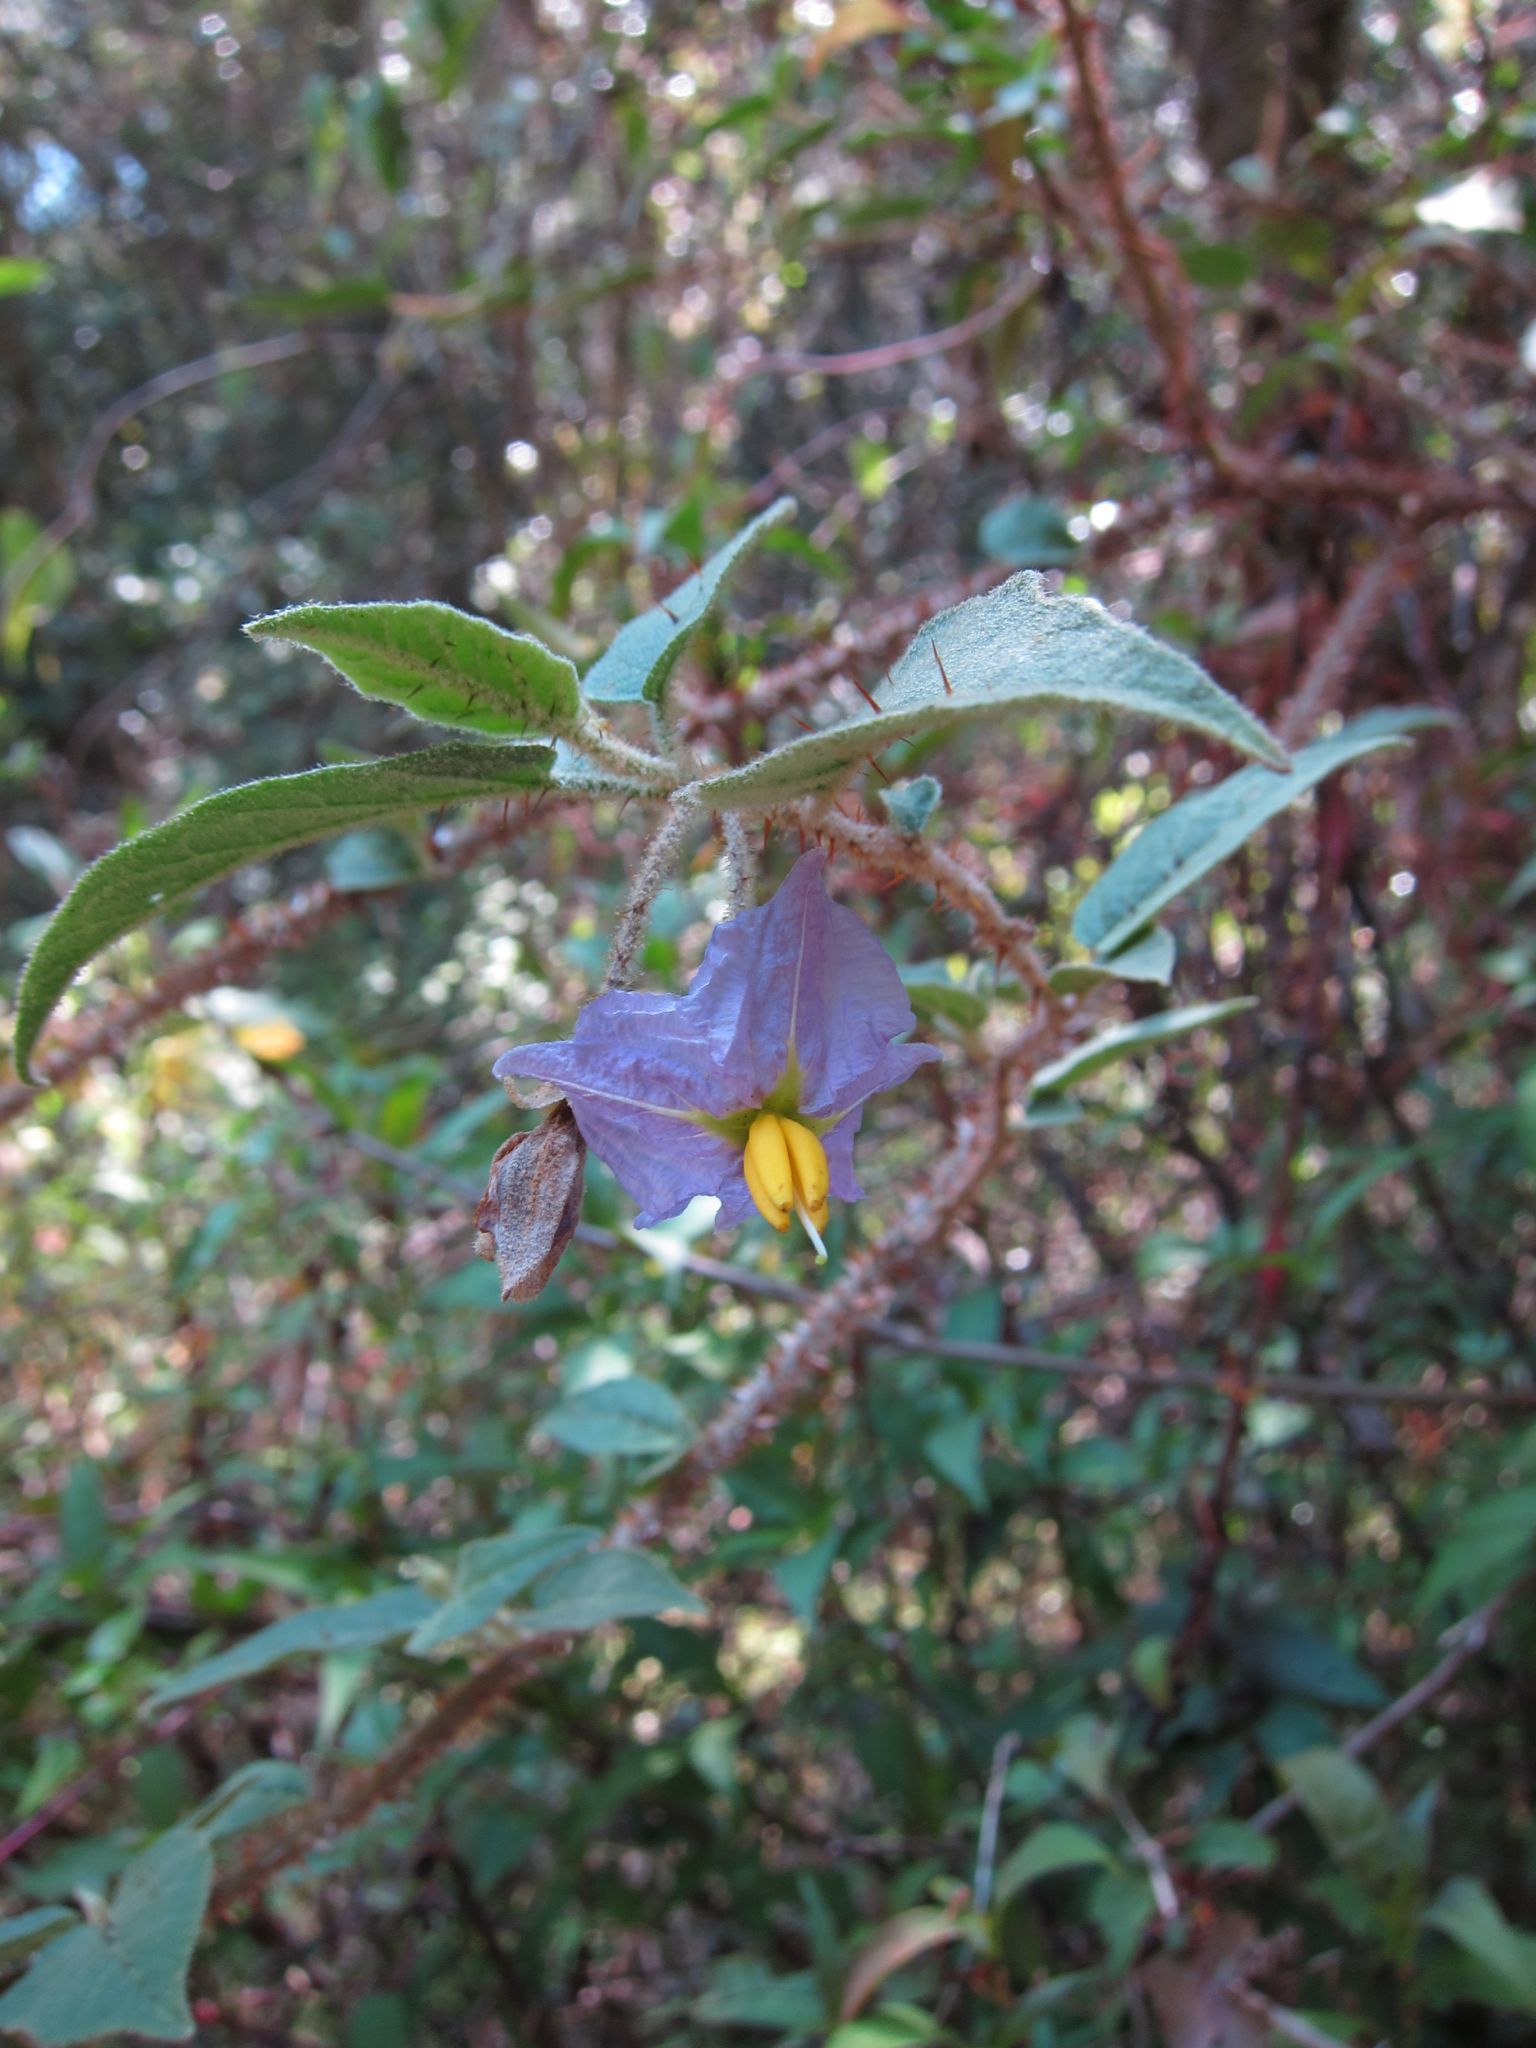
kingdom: Plantae
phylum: Tracheophyta
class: Magnoliopsida
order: Solanales
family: Solanaceae
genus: Solanum
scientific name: Solanum myoxotrichum
